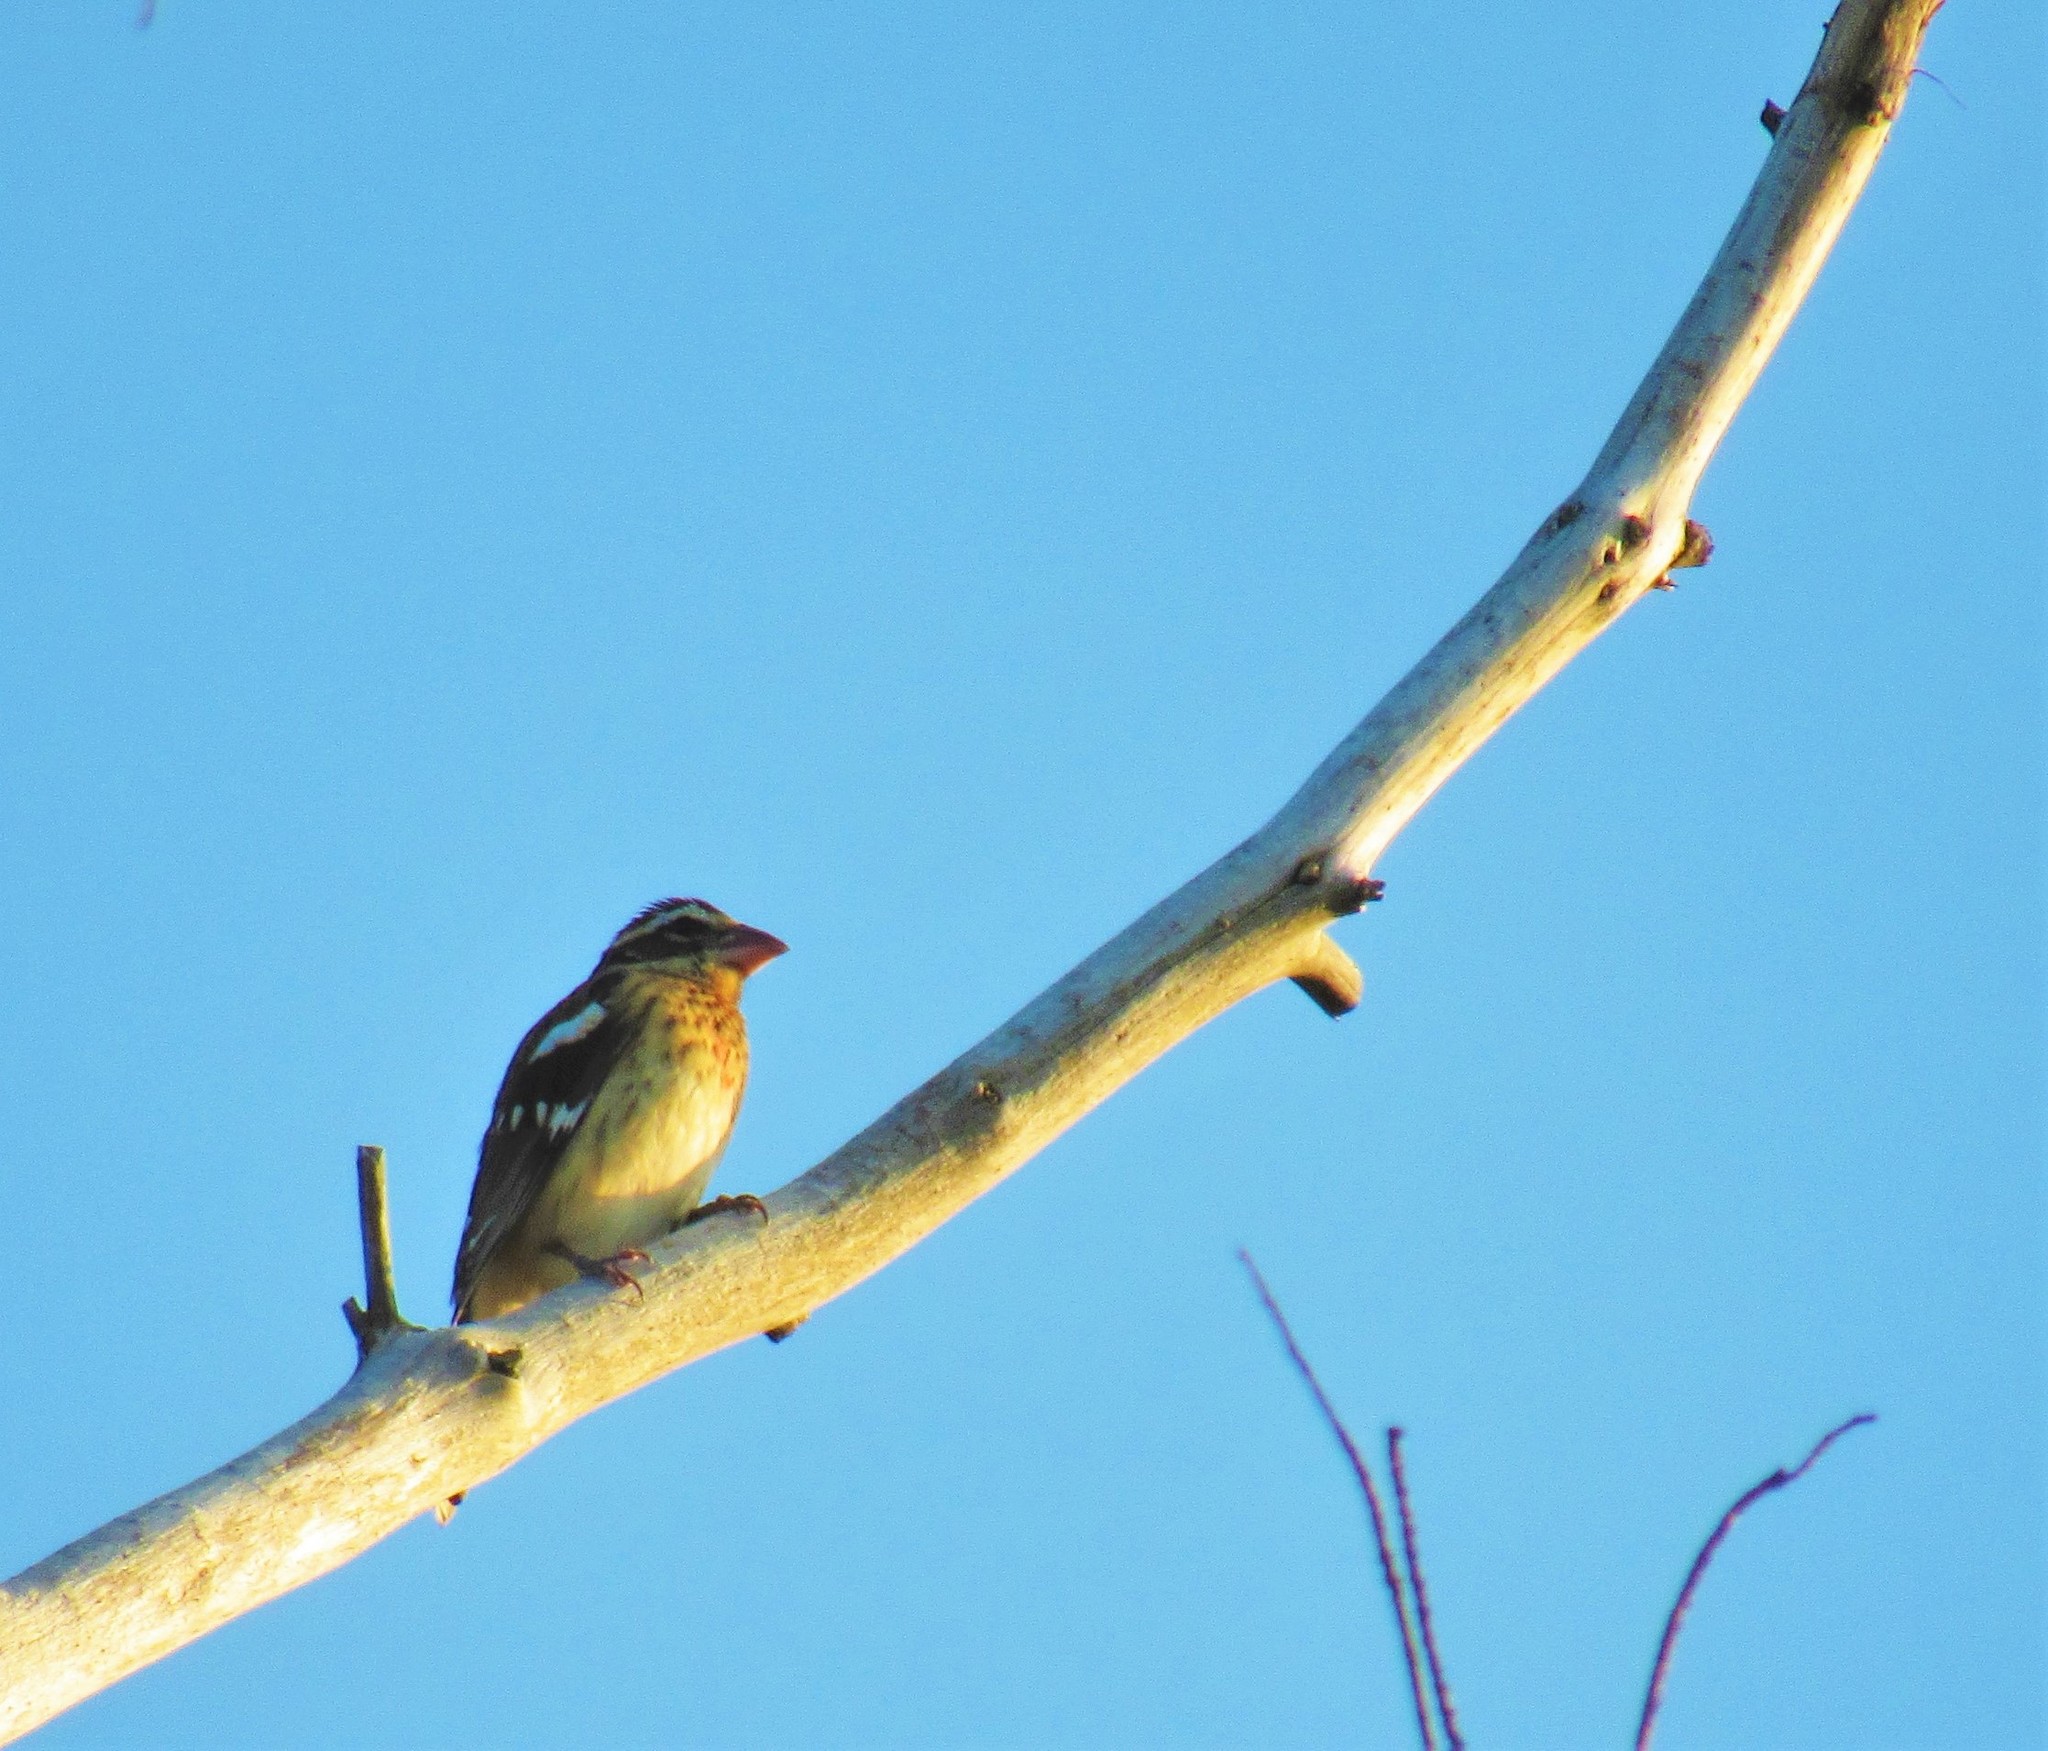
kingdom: Animalia
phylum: Chordata
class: Aves
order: Passeriformes
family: Cardinalidae
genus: Pheucticus
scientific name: Pheucticus ludovicianus
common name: Rose-breasted grosbeak
